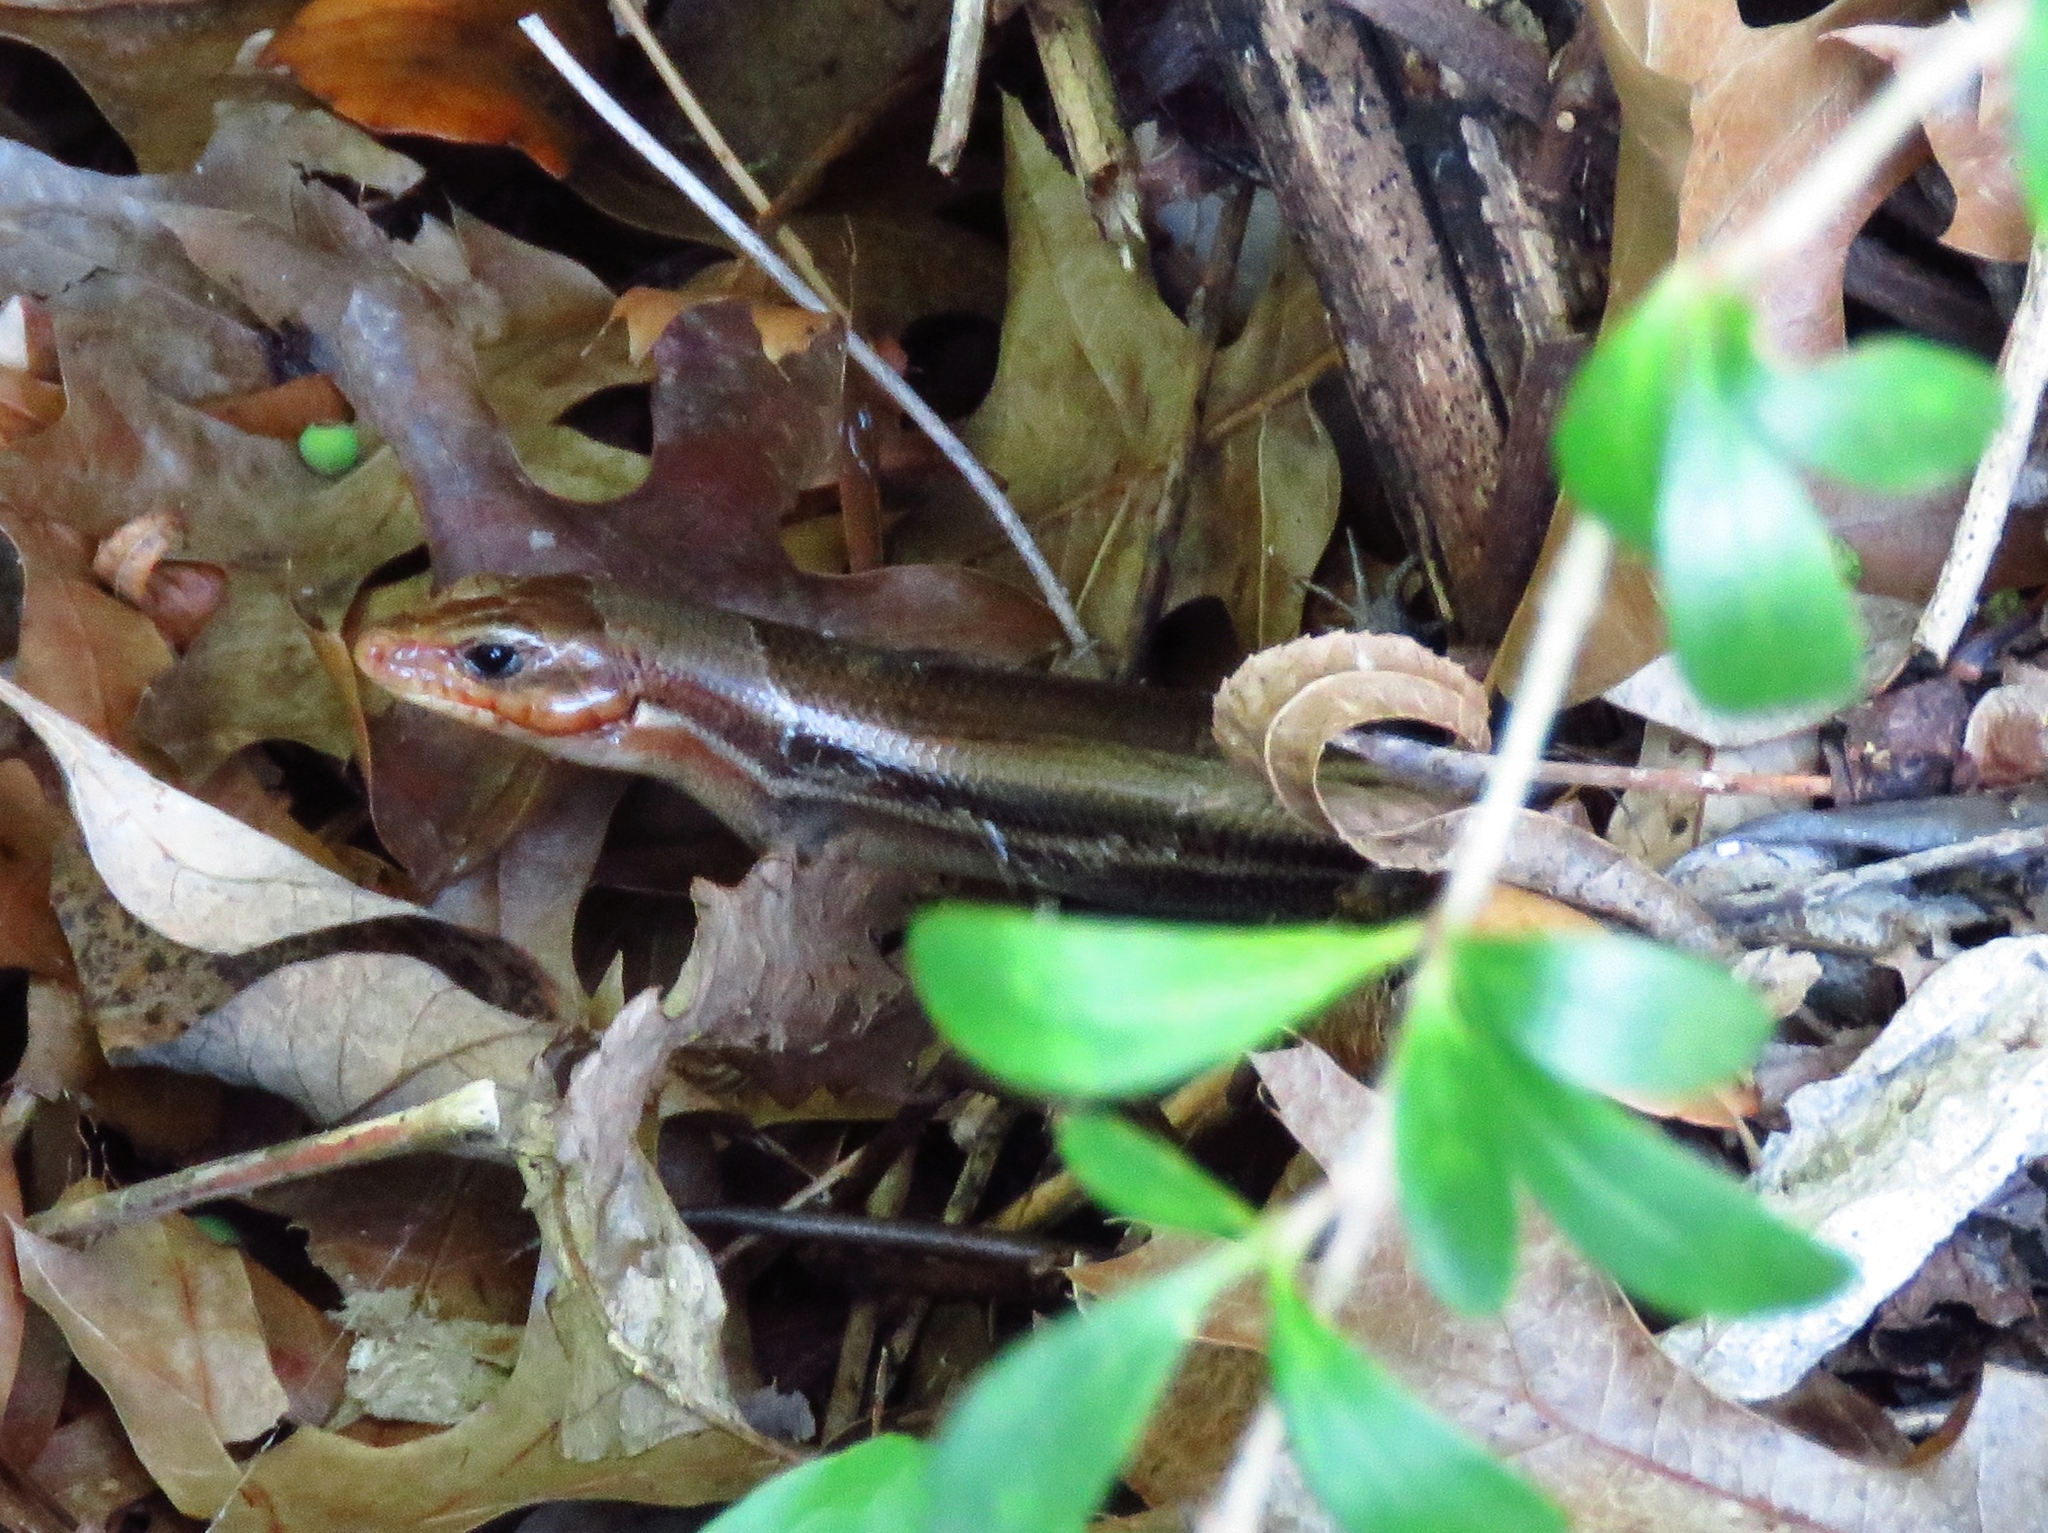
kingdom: Animalia
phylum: Chordata
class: Squamata
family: Scincidae
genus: Plestiodon
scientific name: Plestiodon laticeps
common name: Broadhead skink
